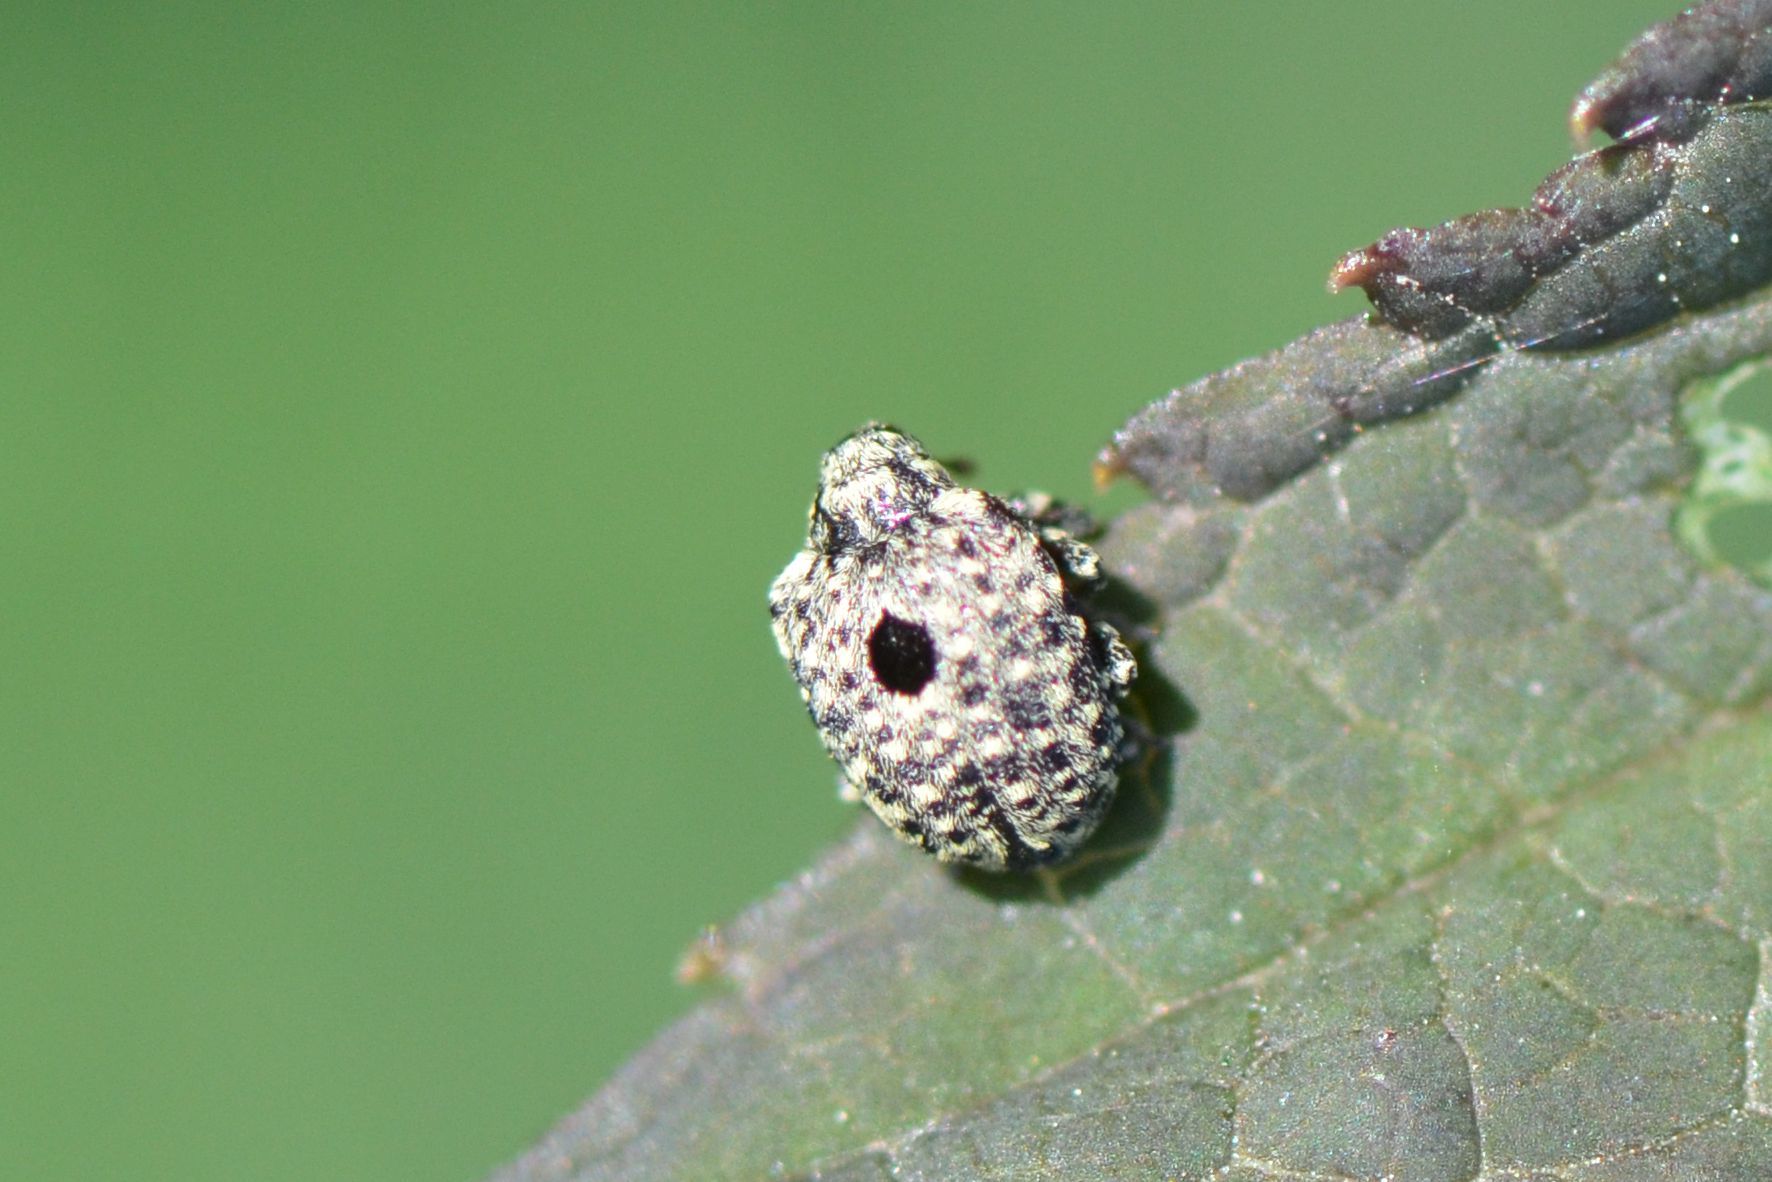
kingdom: Animalia
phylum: Arthropoda
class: Insecta
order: Coleoptera
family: Curculionidae
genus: Cionus
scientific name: Cionus hortulanus
